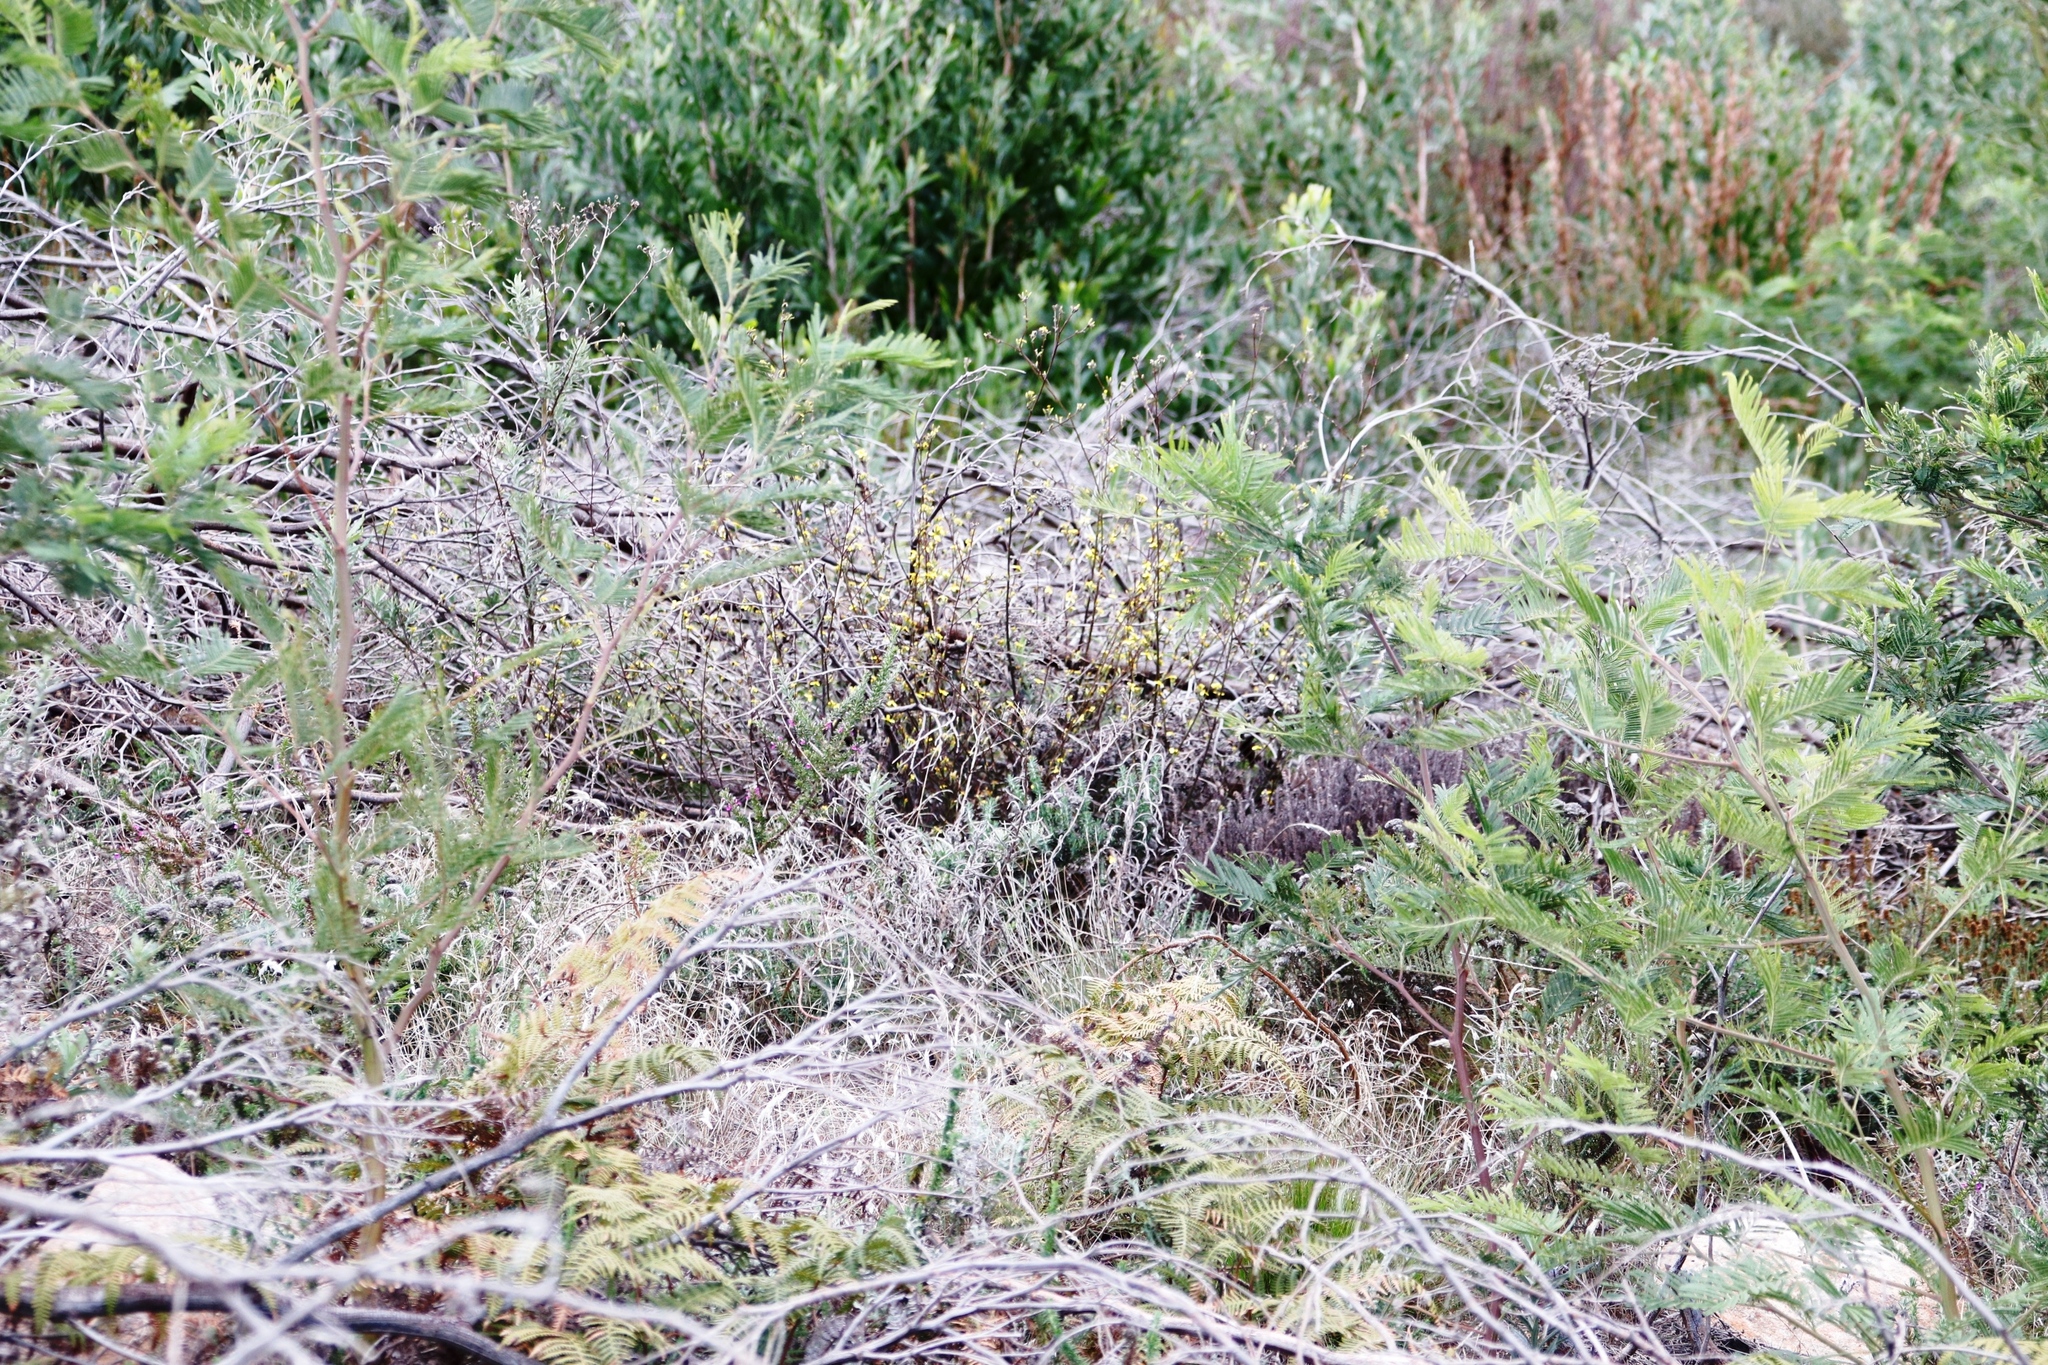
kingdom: Plantae
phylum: Tracheophyta
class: Magnoliopsida
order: Asterales
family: Asteraceae
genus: Senecio
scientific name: Senecio pubigerus
